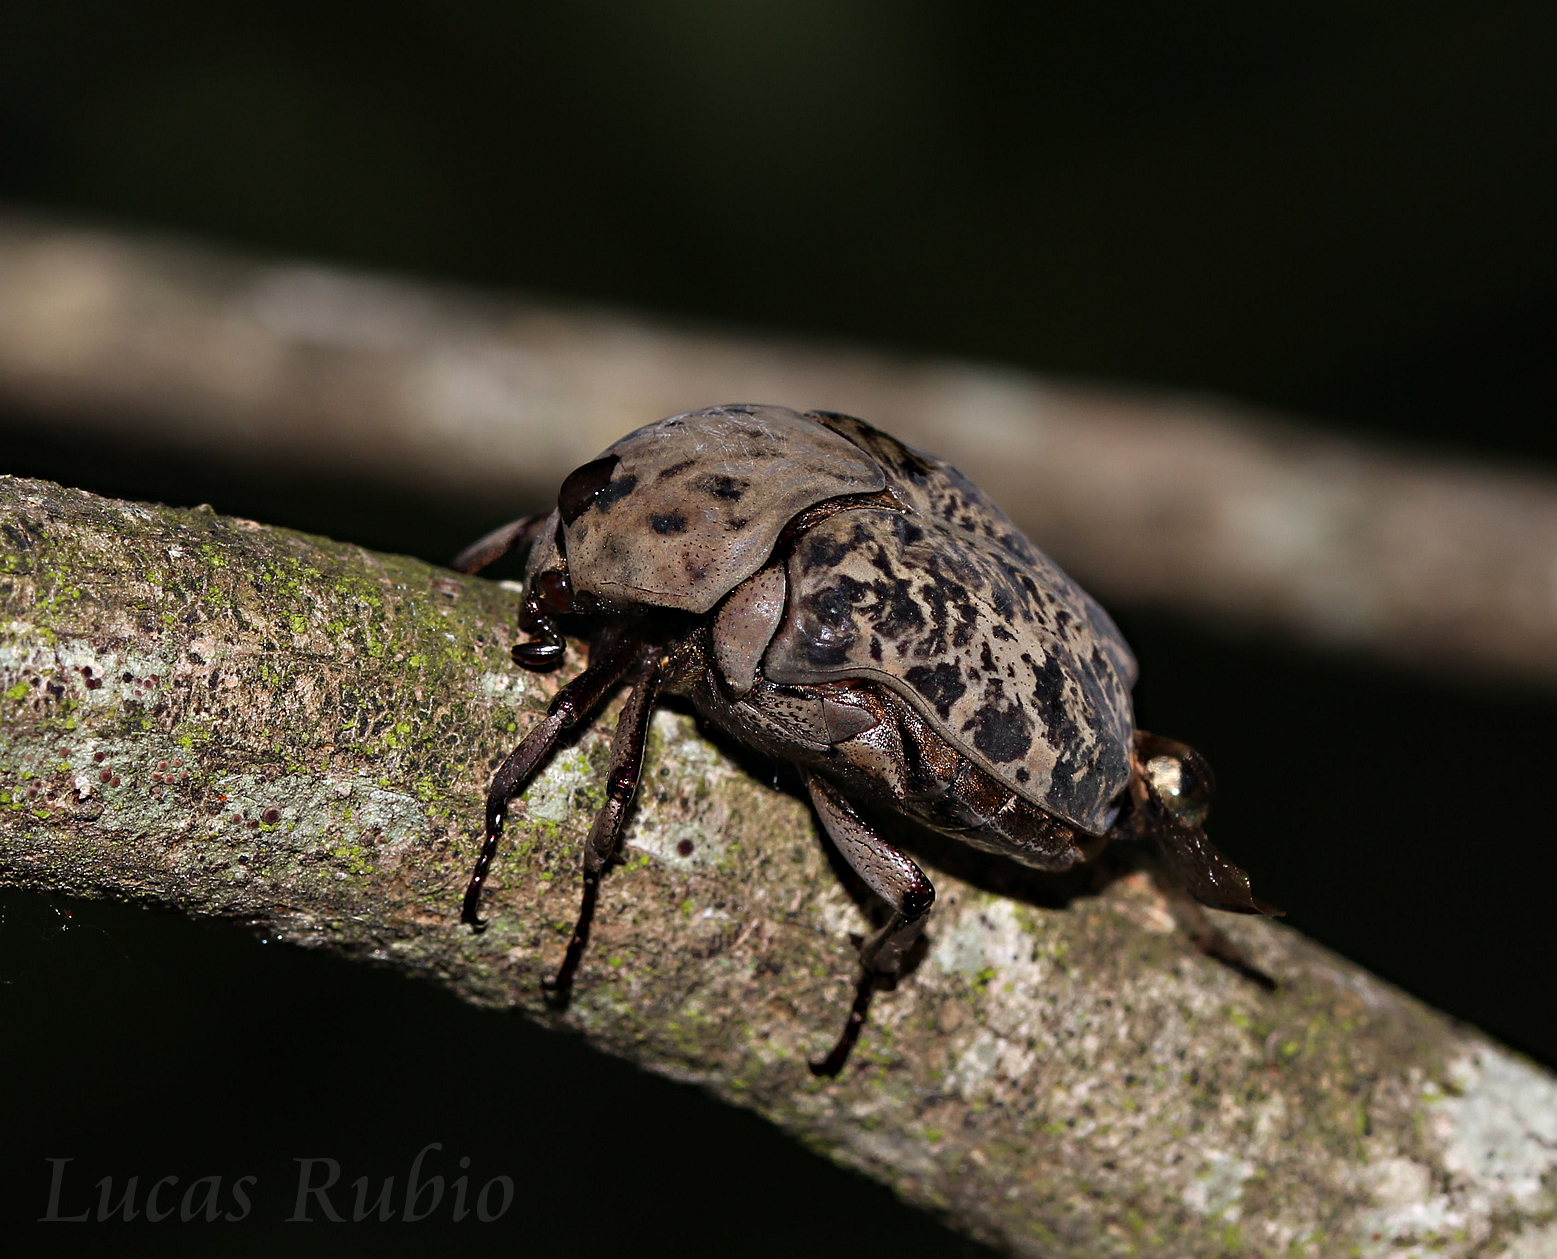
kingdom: Animalia
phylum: Arthropoda
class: Insecta
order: Coleoptera
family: Scarabaeidae
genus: Gymnetis
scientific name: Gymnetis chalcipes
